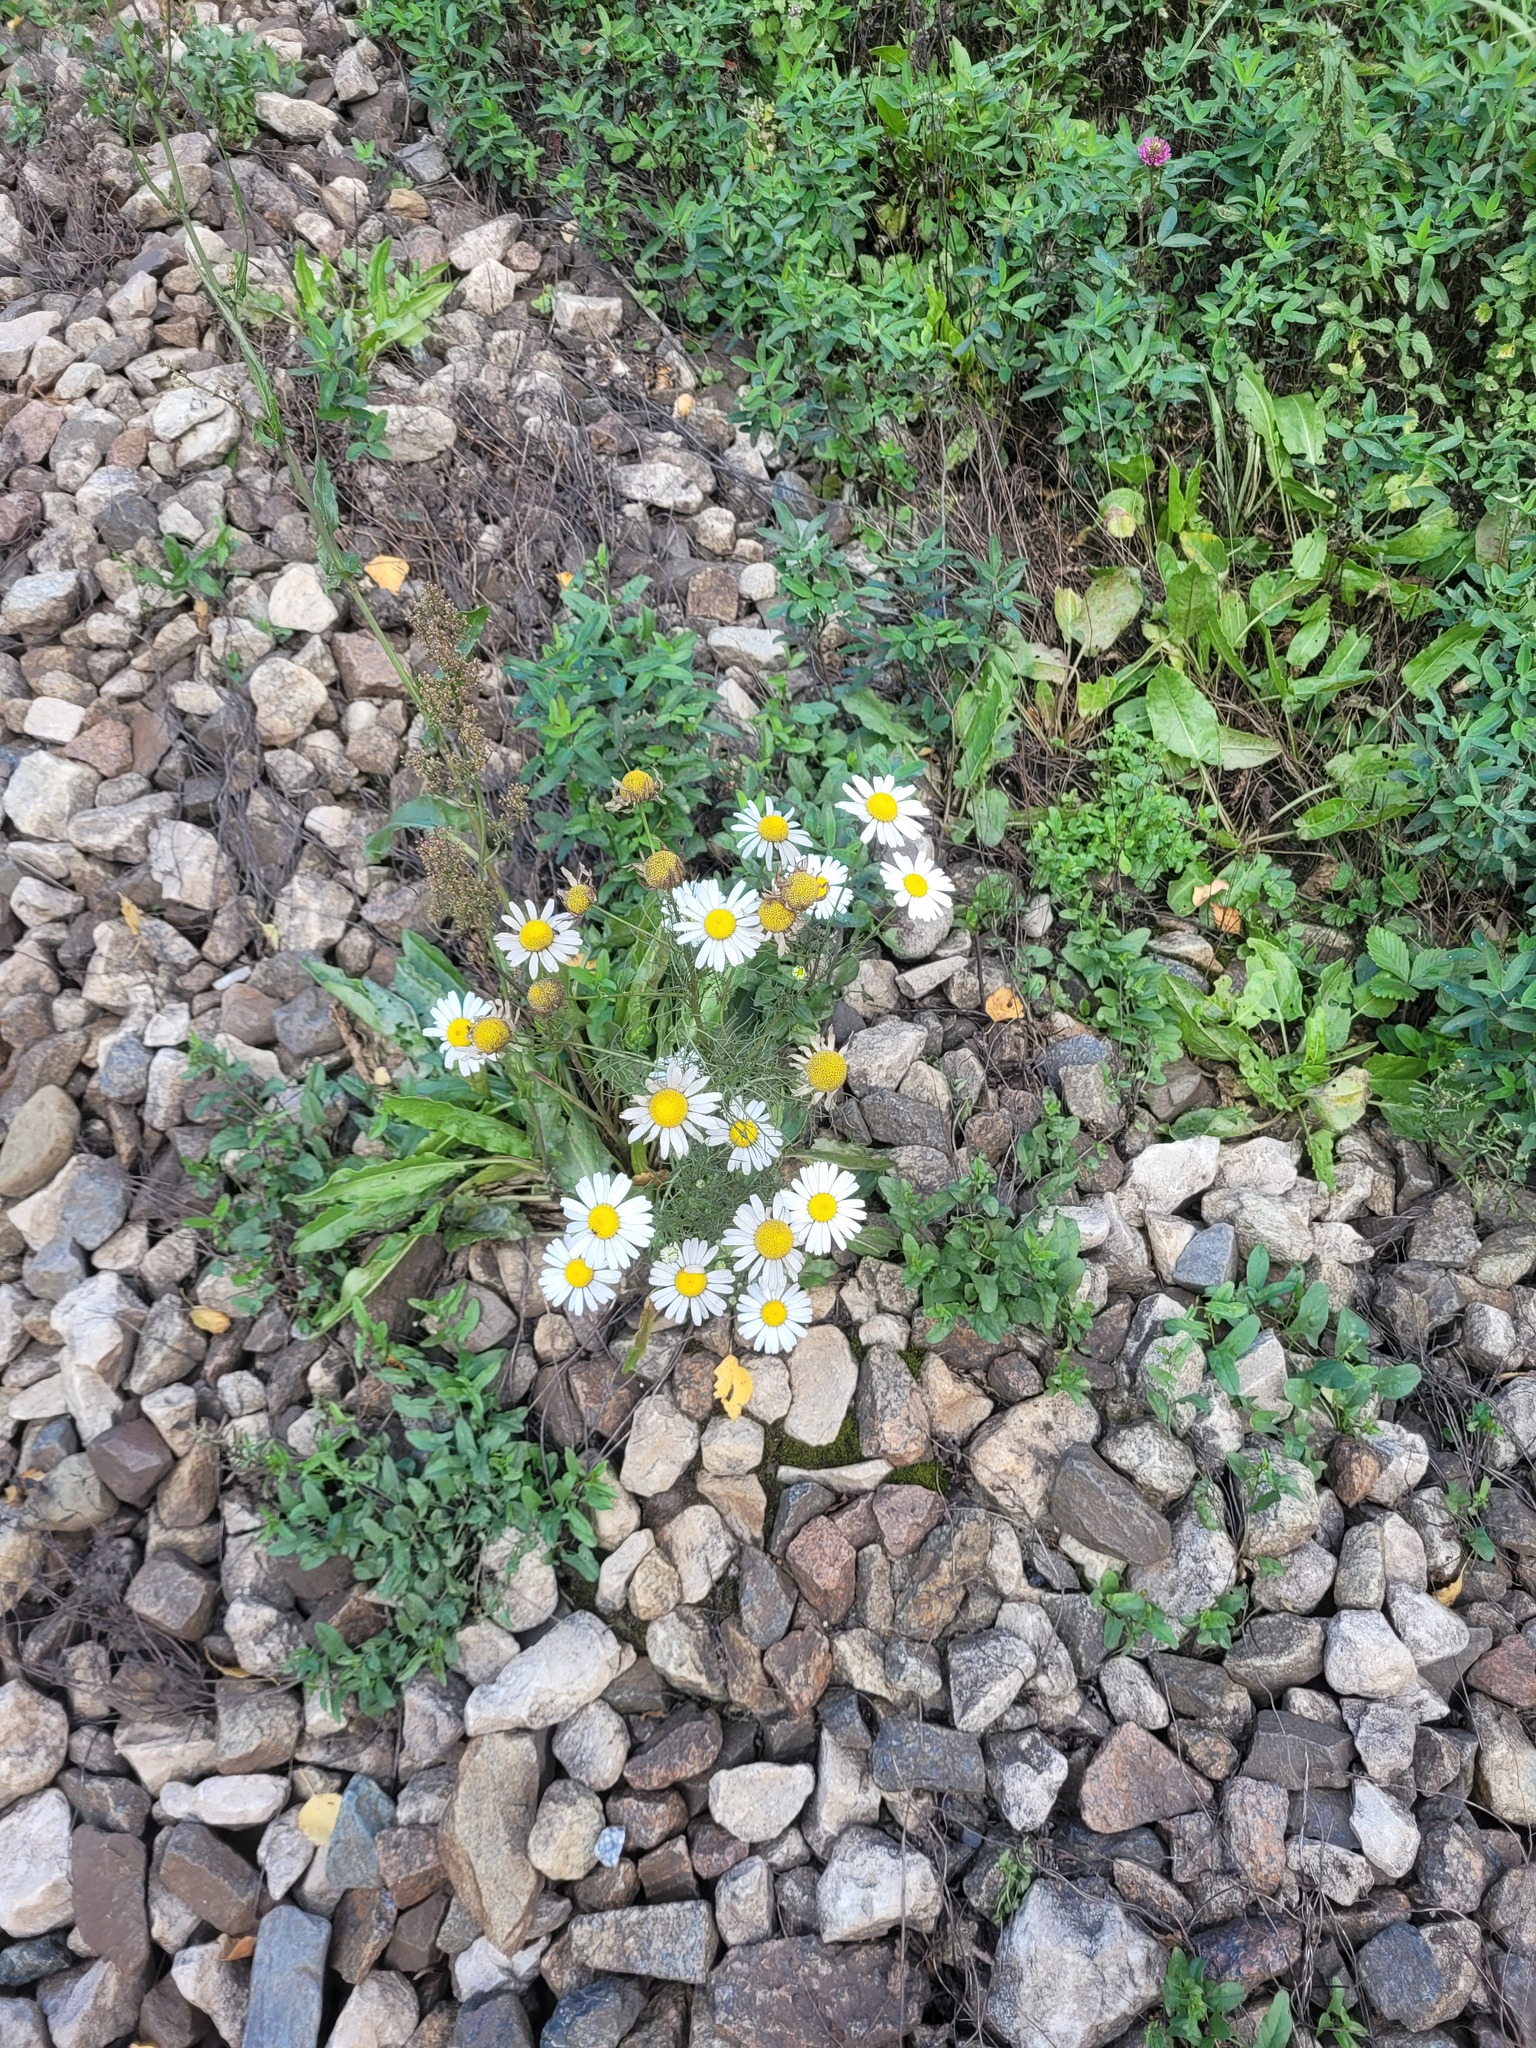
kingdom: Plantae
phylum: Tracheophyta
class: Magnoliopsida
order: Asterales
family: Asteraceae
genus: Tripleurospermum
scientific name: Tripleurospermum inodorum
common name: Scentless mayweed
